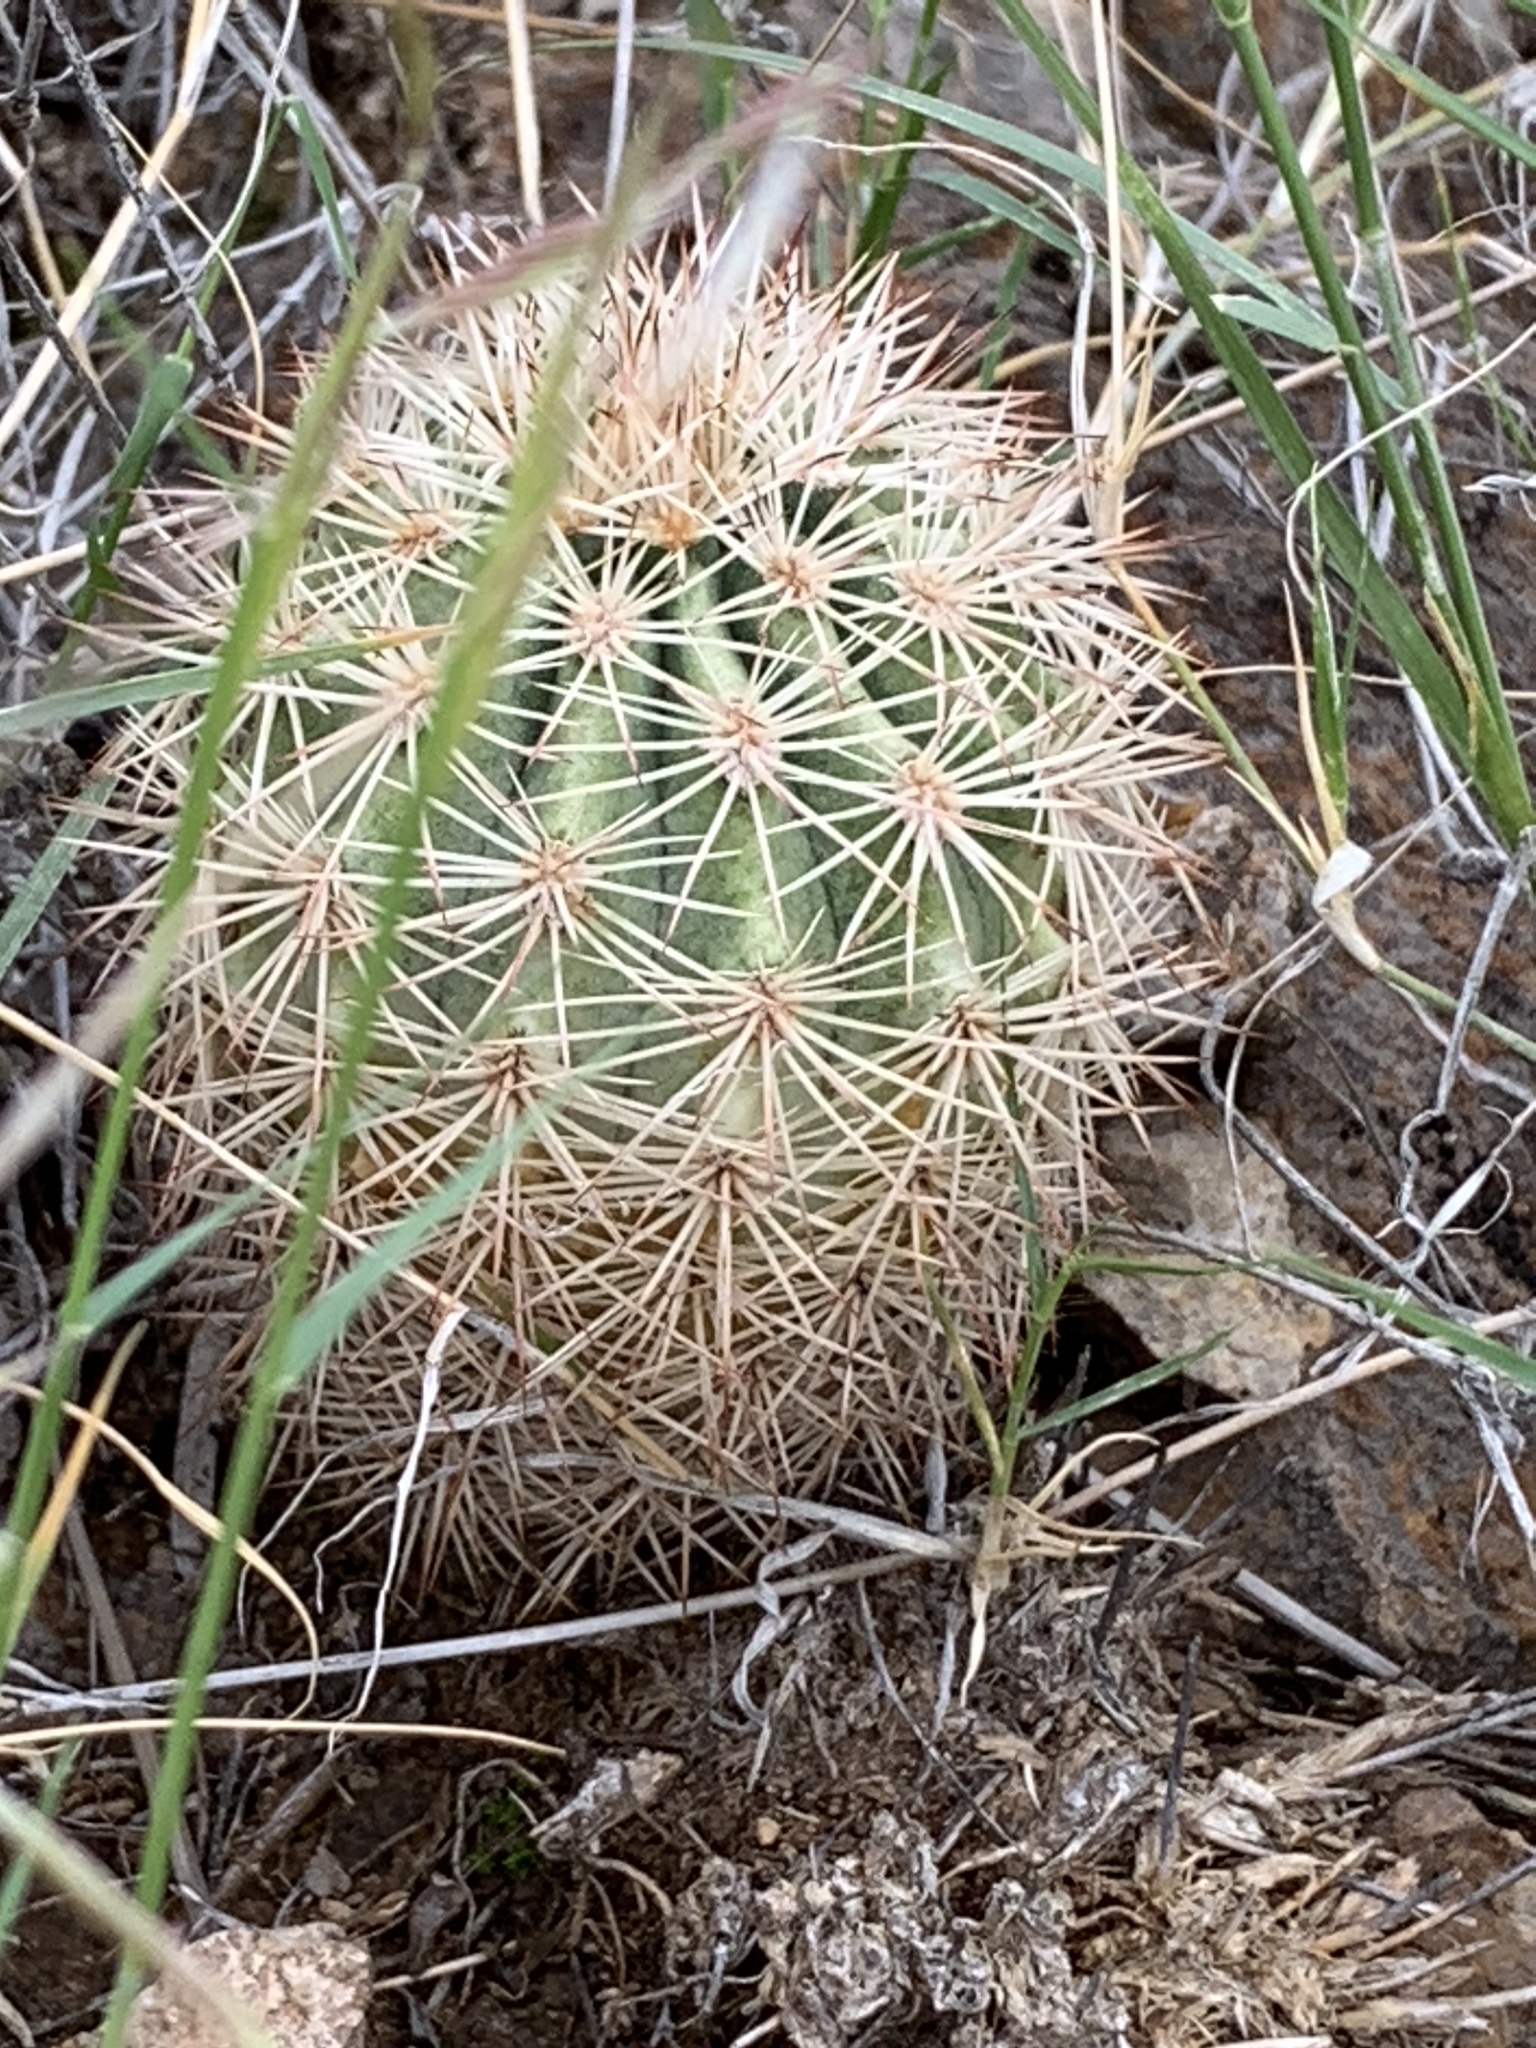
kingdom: Plantae
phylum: Tracheophyta
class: Magnoliopsida
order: Caryophyllales
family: Cactaceae
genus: Echinocereus
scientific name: Echinocereus dasyacanthus
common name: Spiny hedgehog cactus
